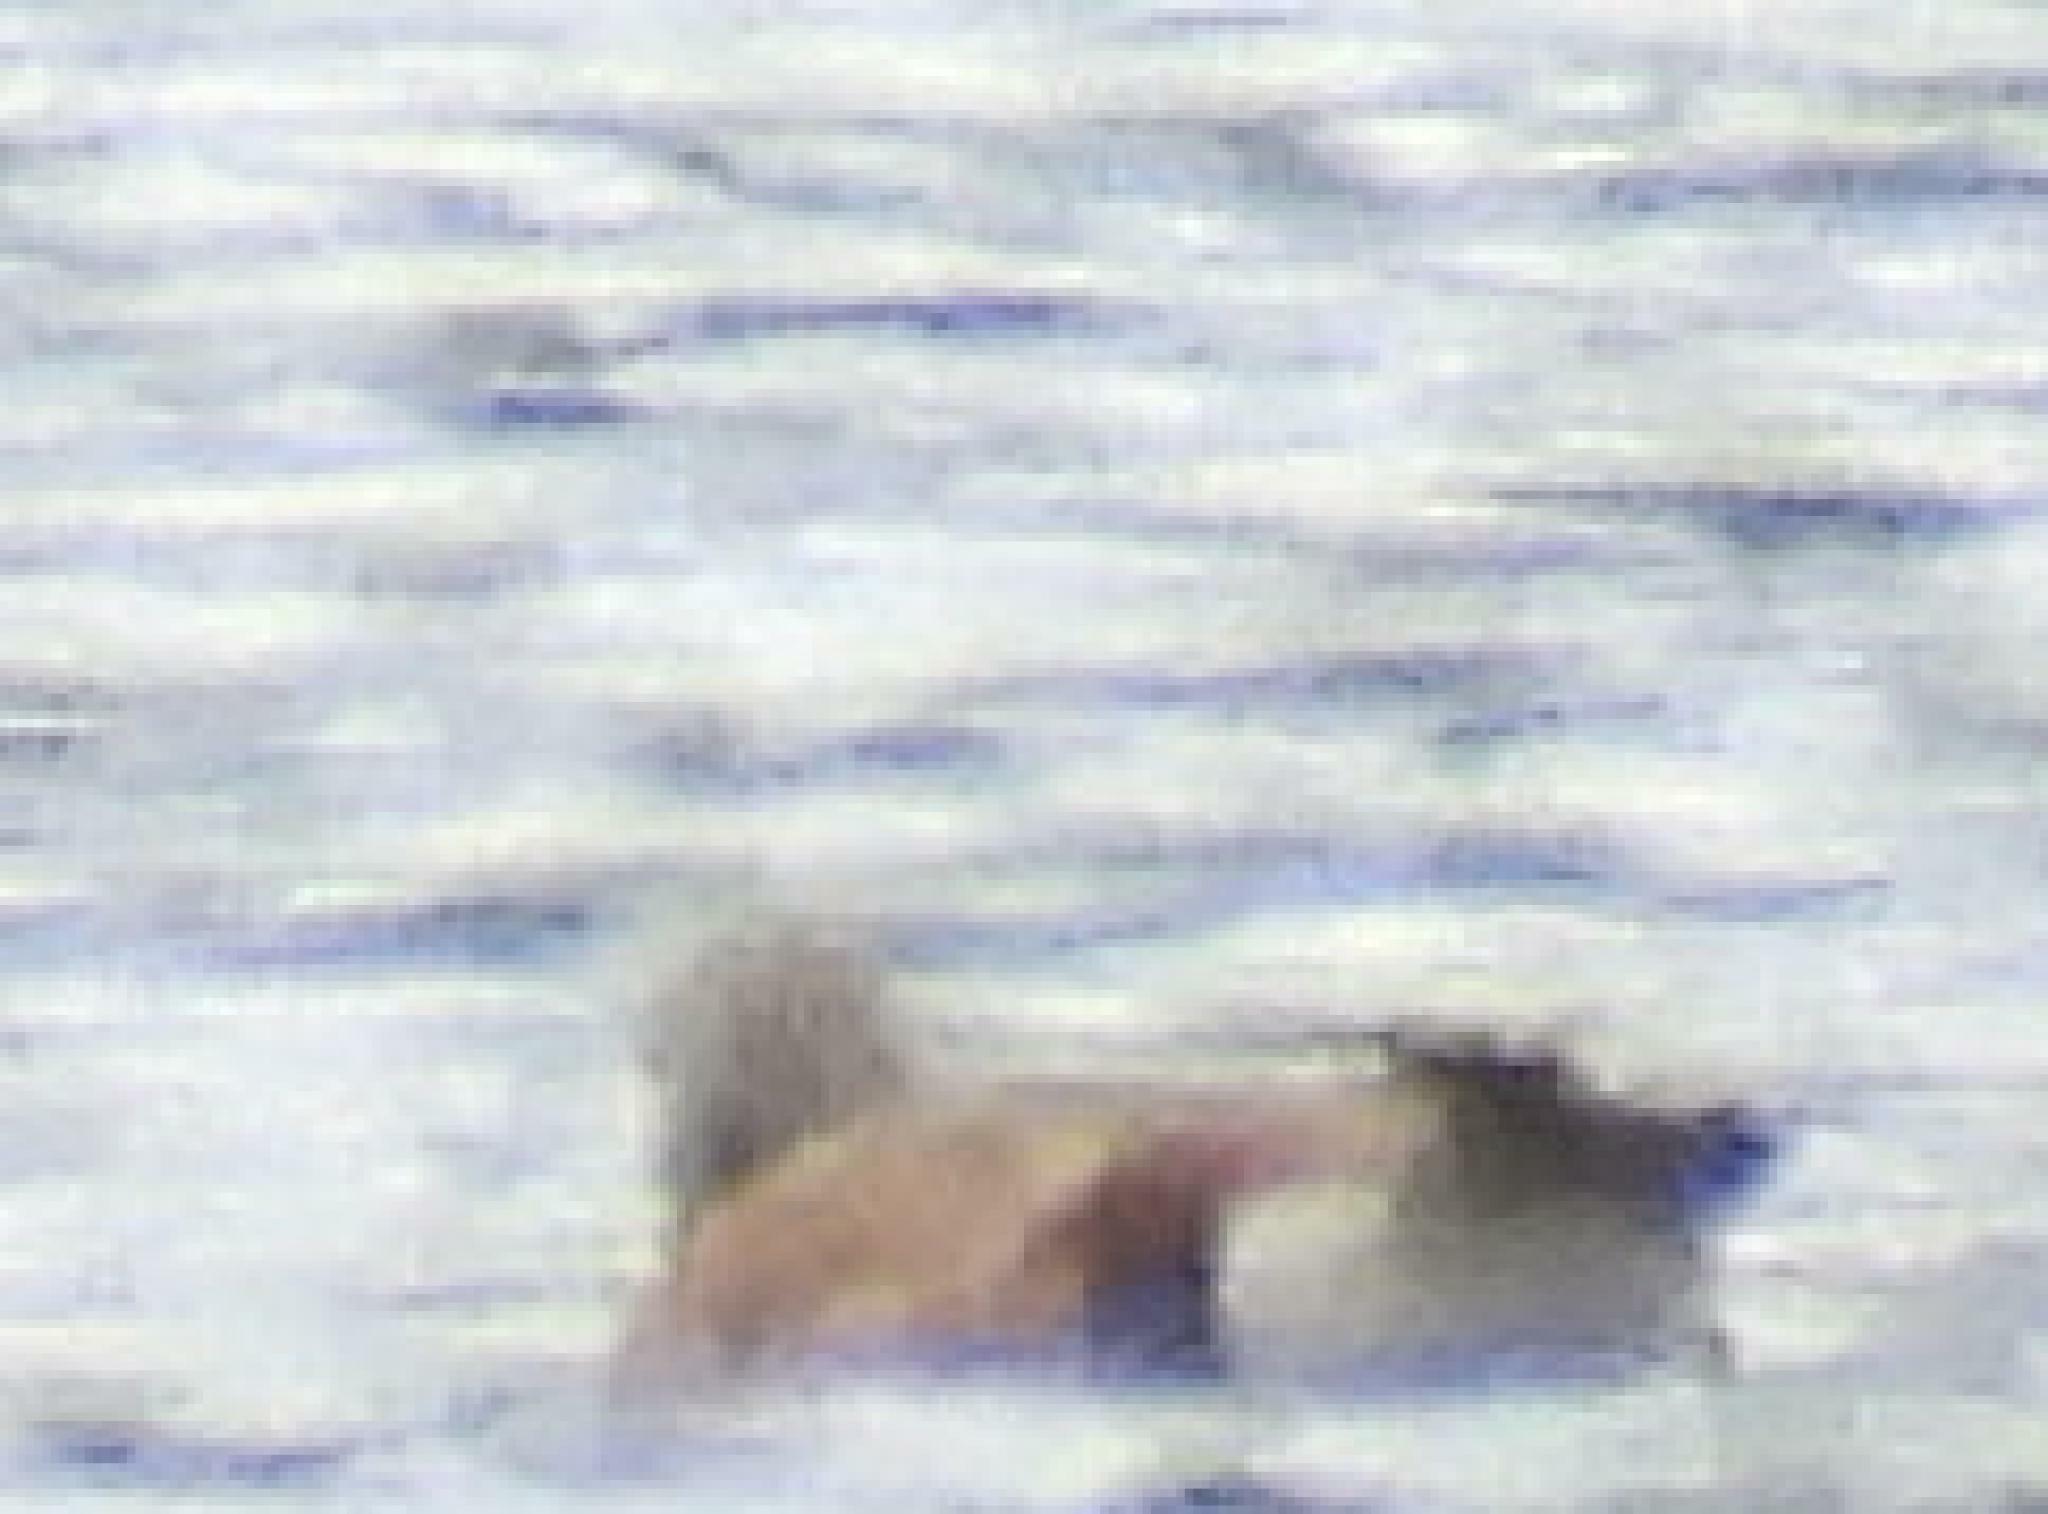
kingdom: Animalia
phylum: Chordata
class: Aves
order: Anseriformes
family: Anatidae
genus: Tadorna
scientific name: Tadorna cana
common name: South african shelduck
